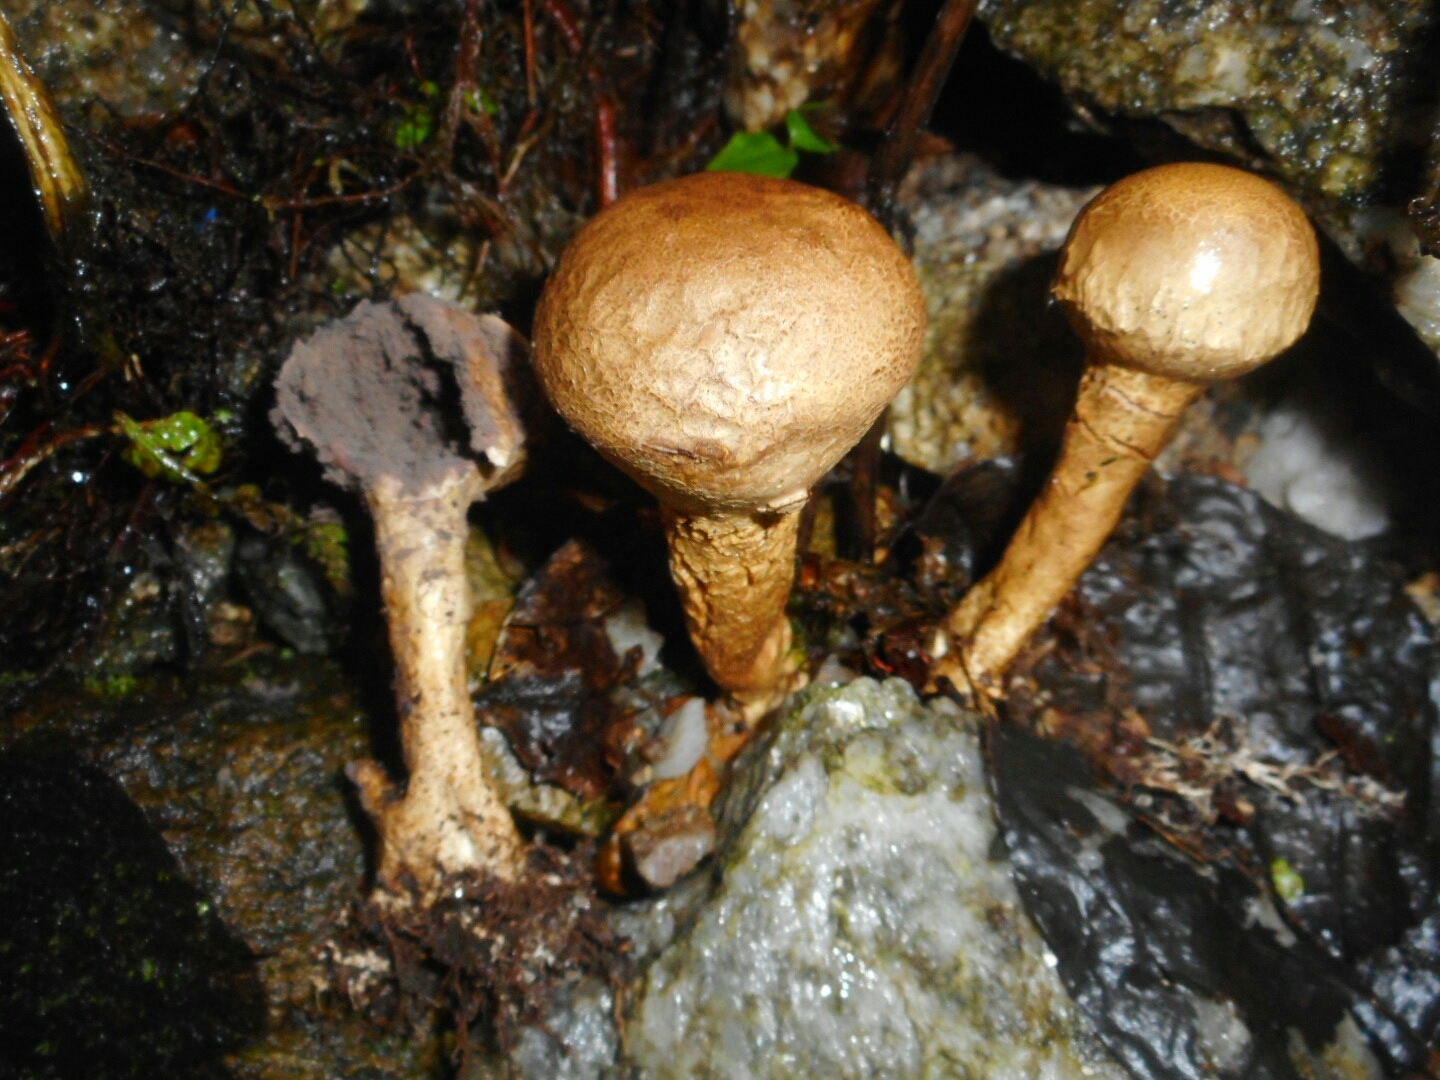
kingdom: Fungi
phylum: Basidiomycota
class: Agaricomycetes
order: Boletales
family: Sclerodermataceae
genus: Scleroderma
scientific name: Scleroderma columnare
